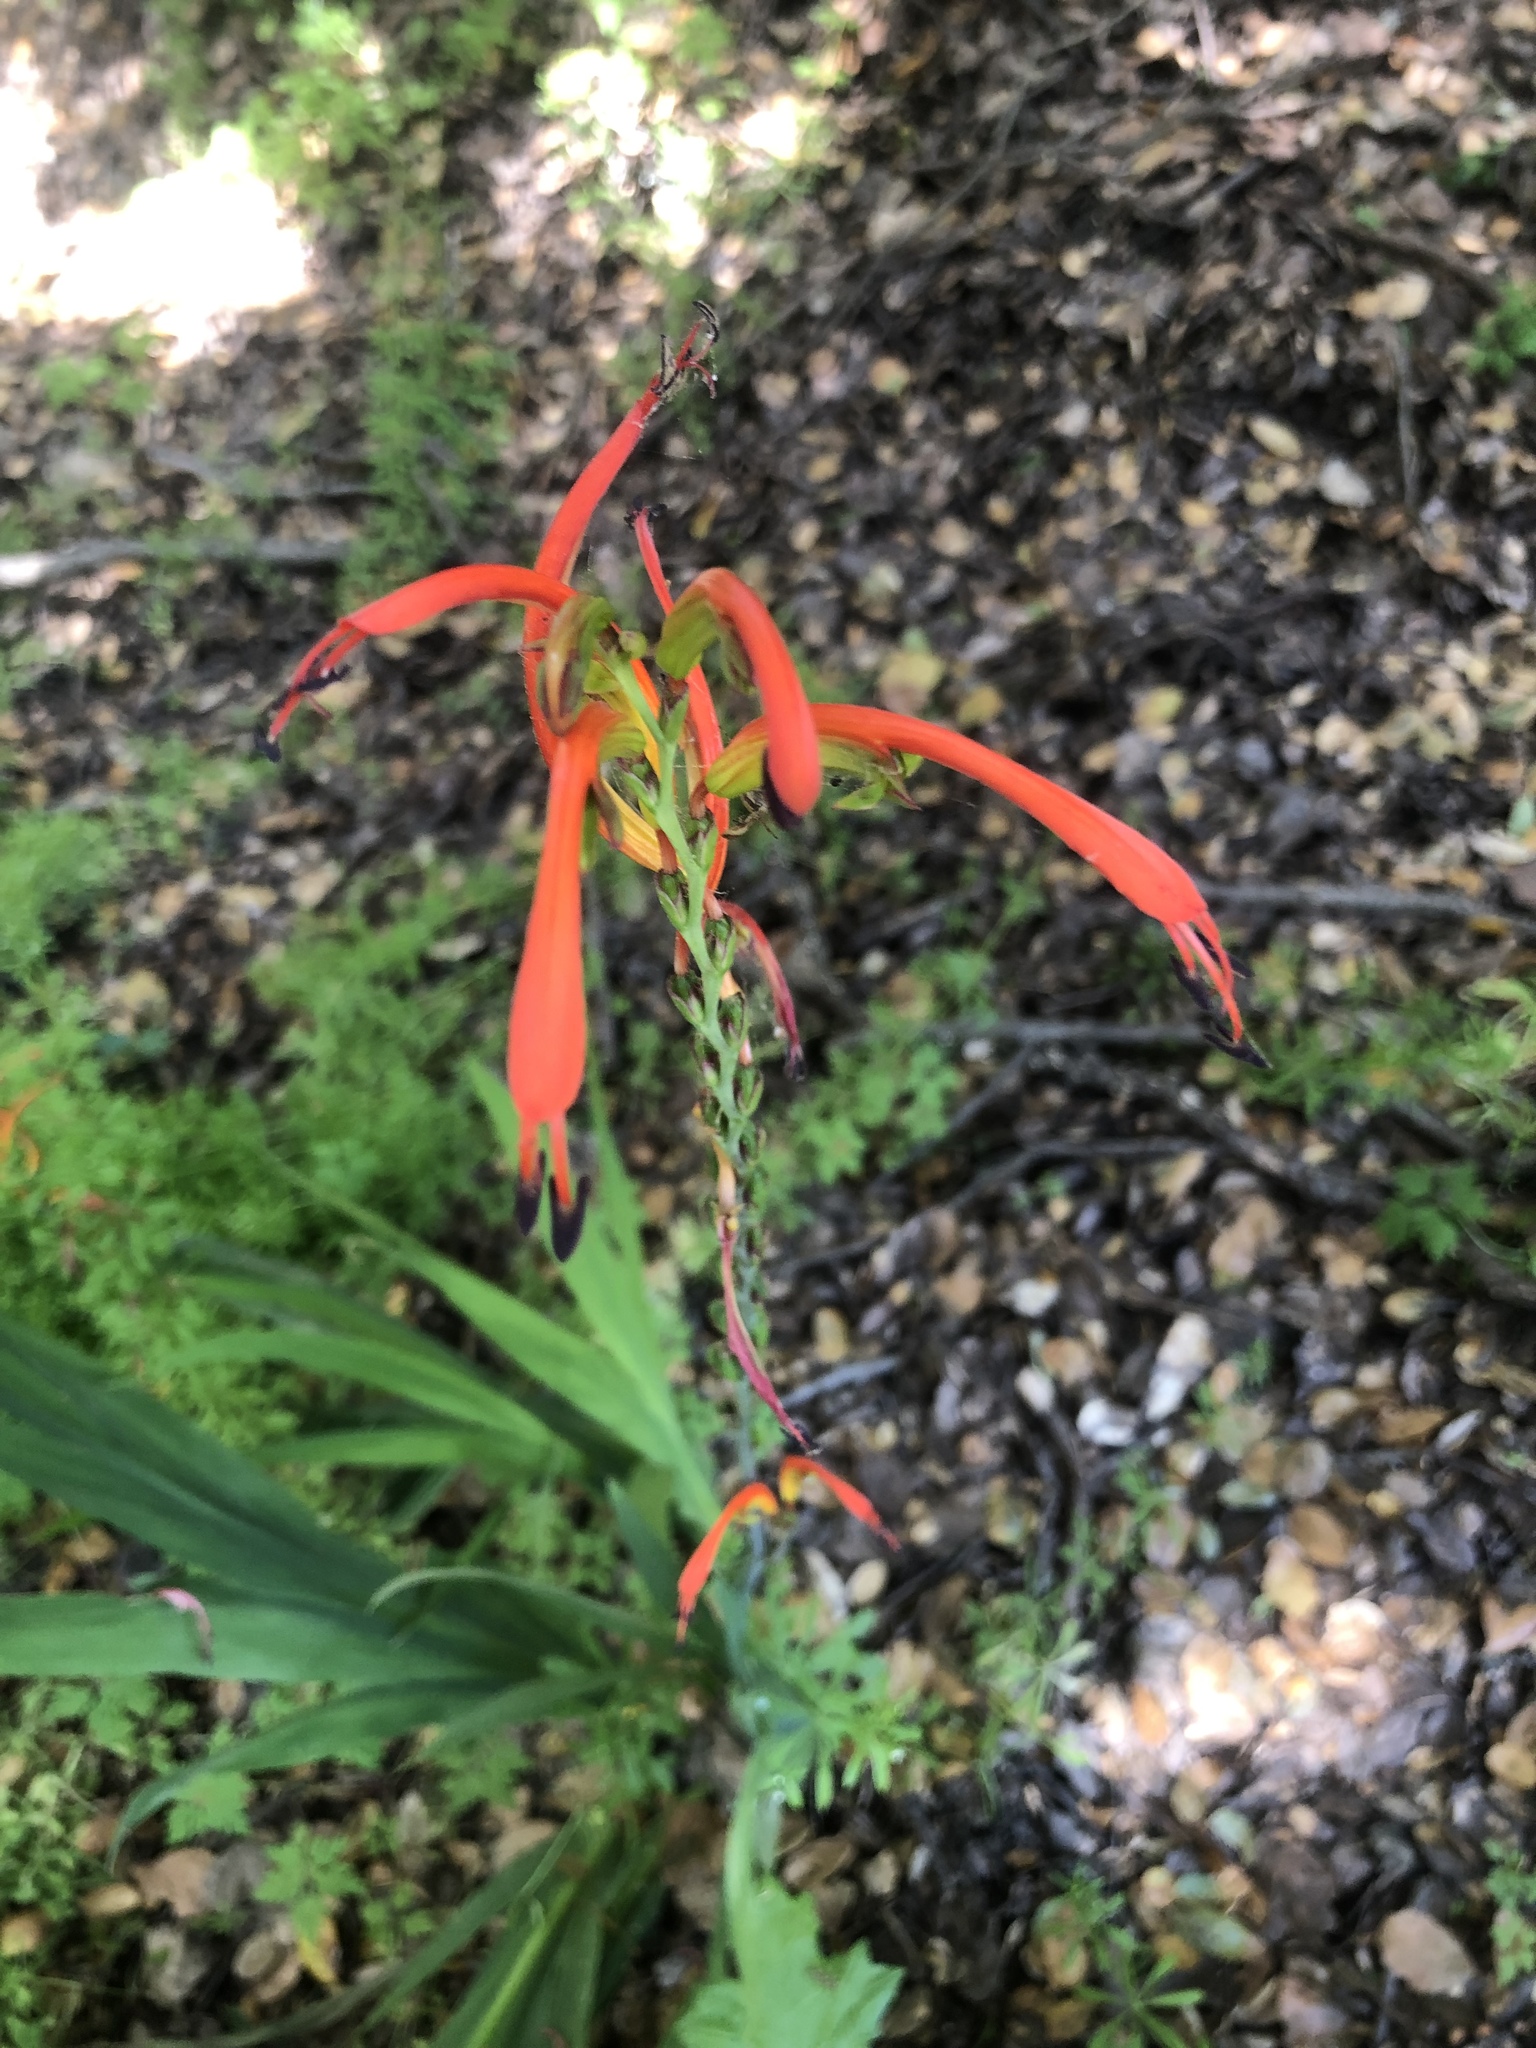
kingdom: Plantae
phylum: Tracheophyta
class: Liliopsida
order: Asparagales
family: Iridaceae
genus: Chasmanthe
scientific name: Chasmanthe bicolor
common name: Bicolor cobra lily
